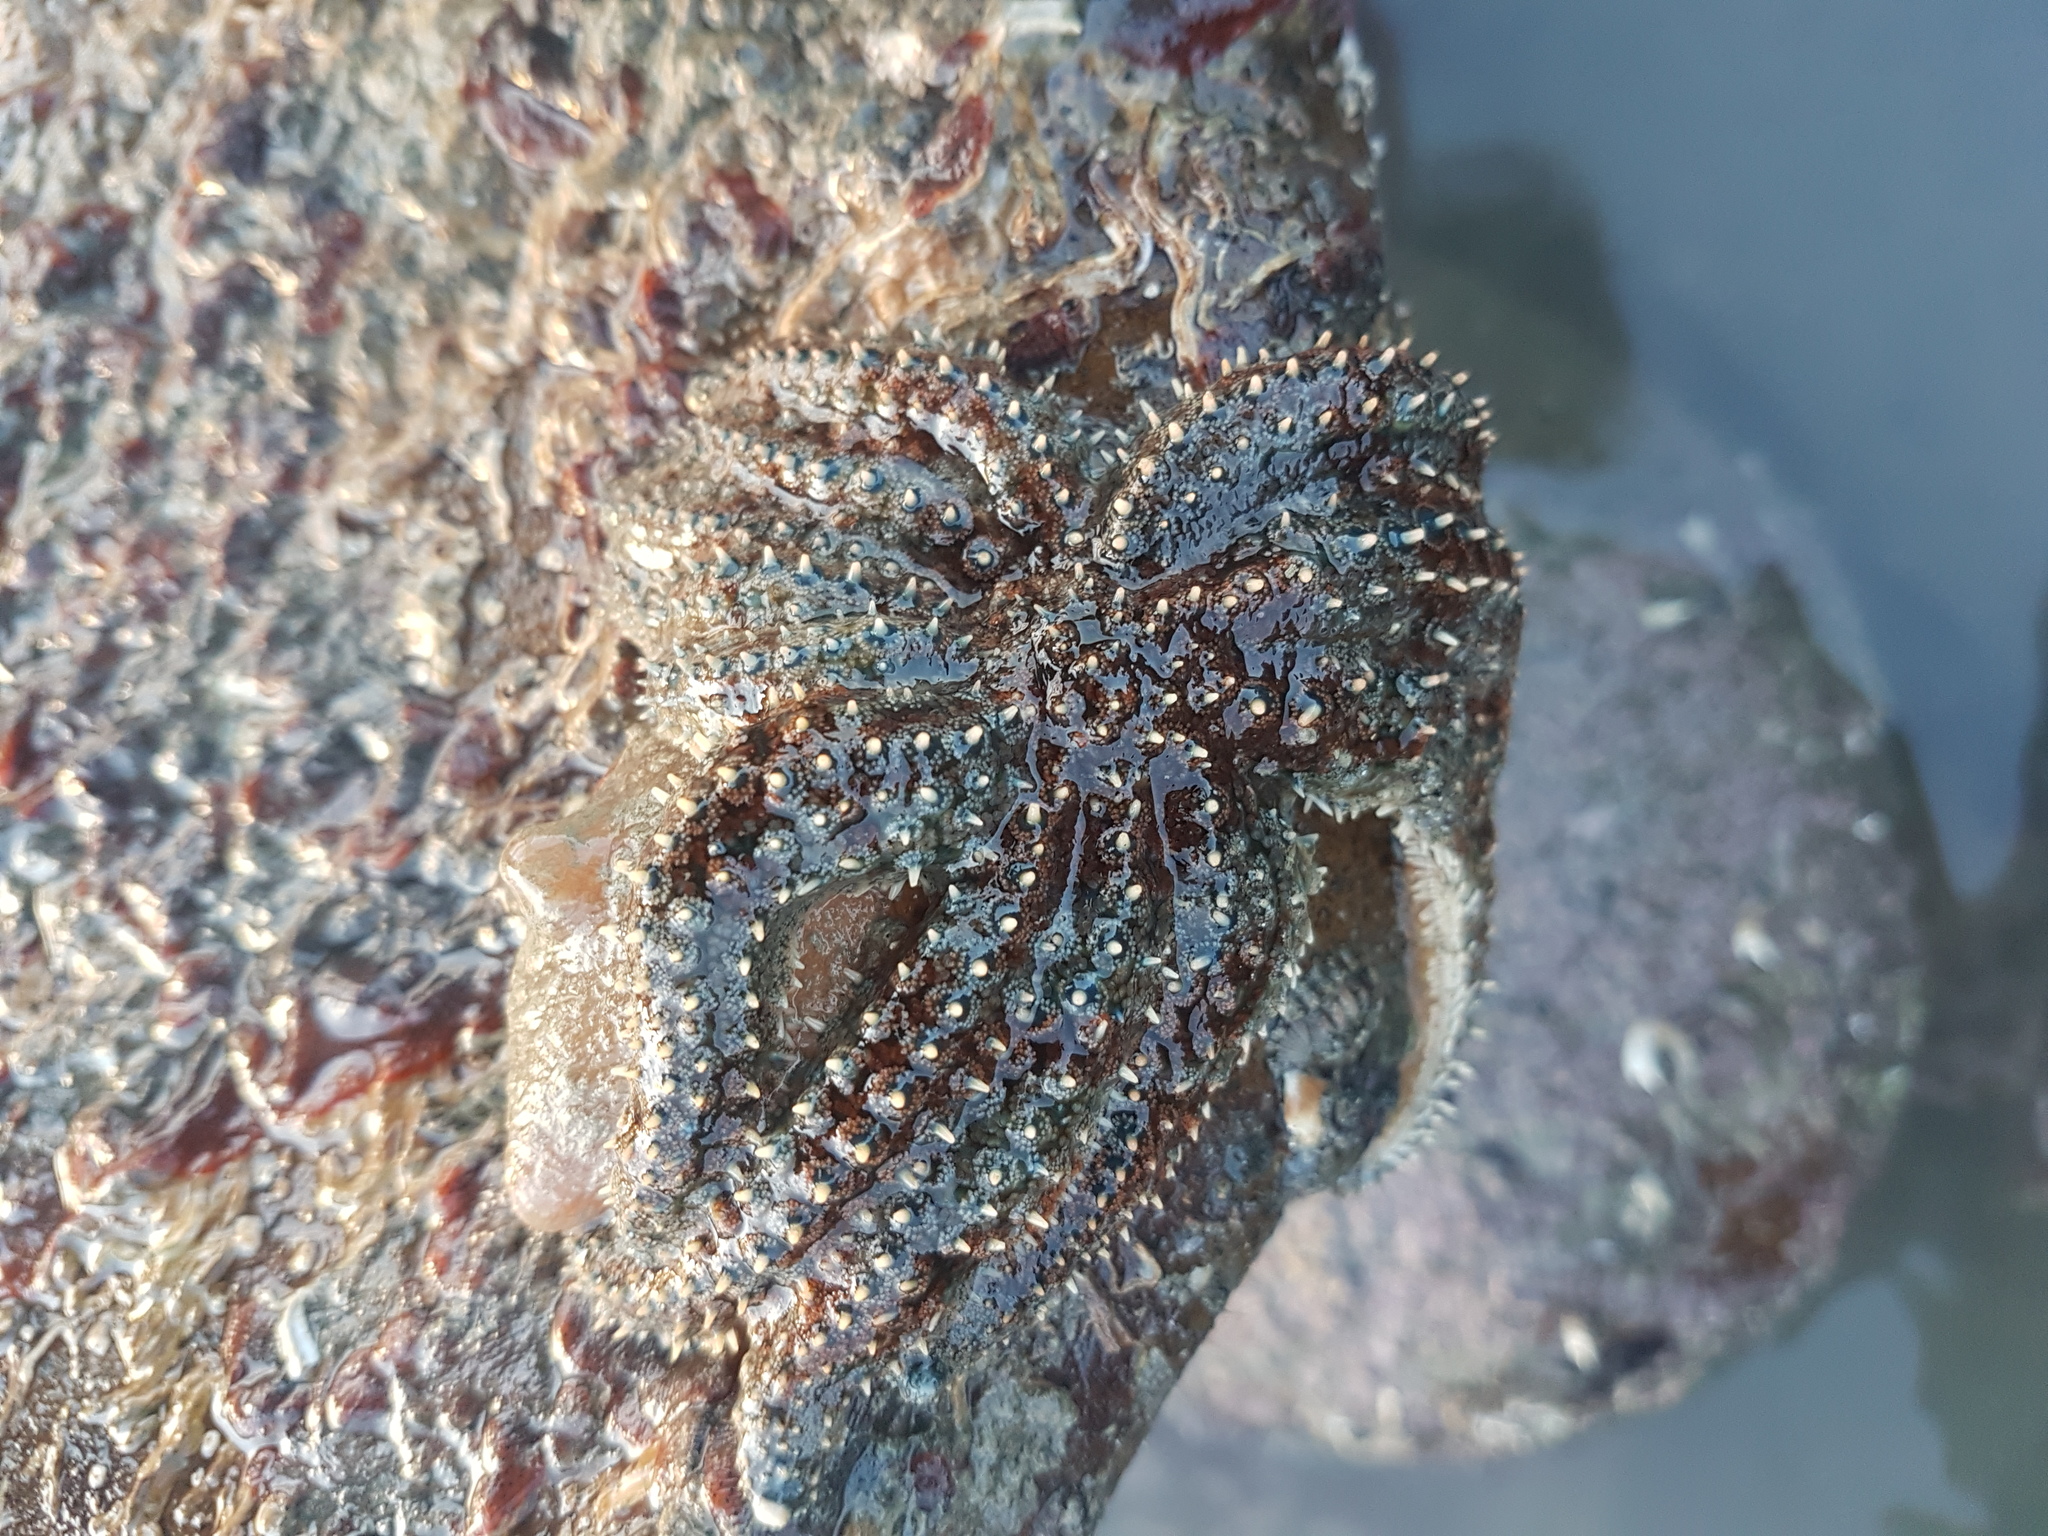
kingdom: Animalia
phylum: Echinodermata
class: Asteroidea
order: Forcipulatida
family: Asteriidae
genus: Coscinasterias
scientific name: Coscinasterias muricata
